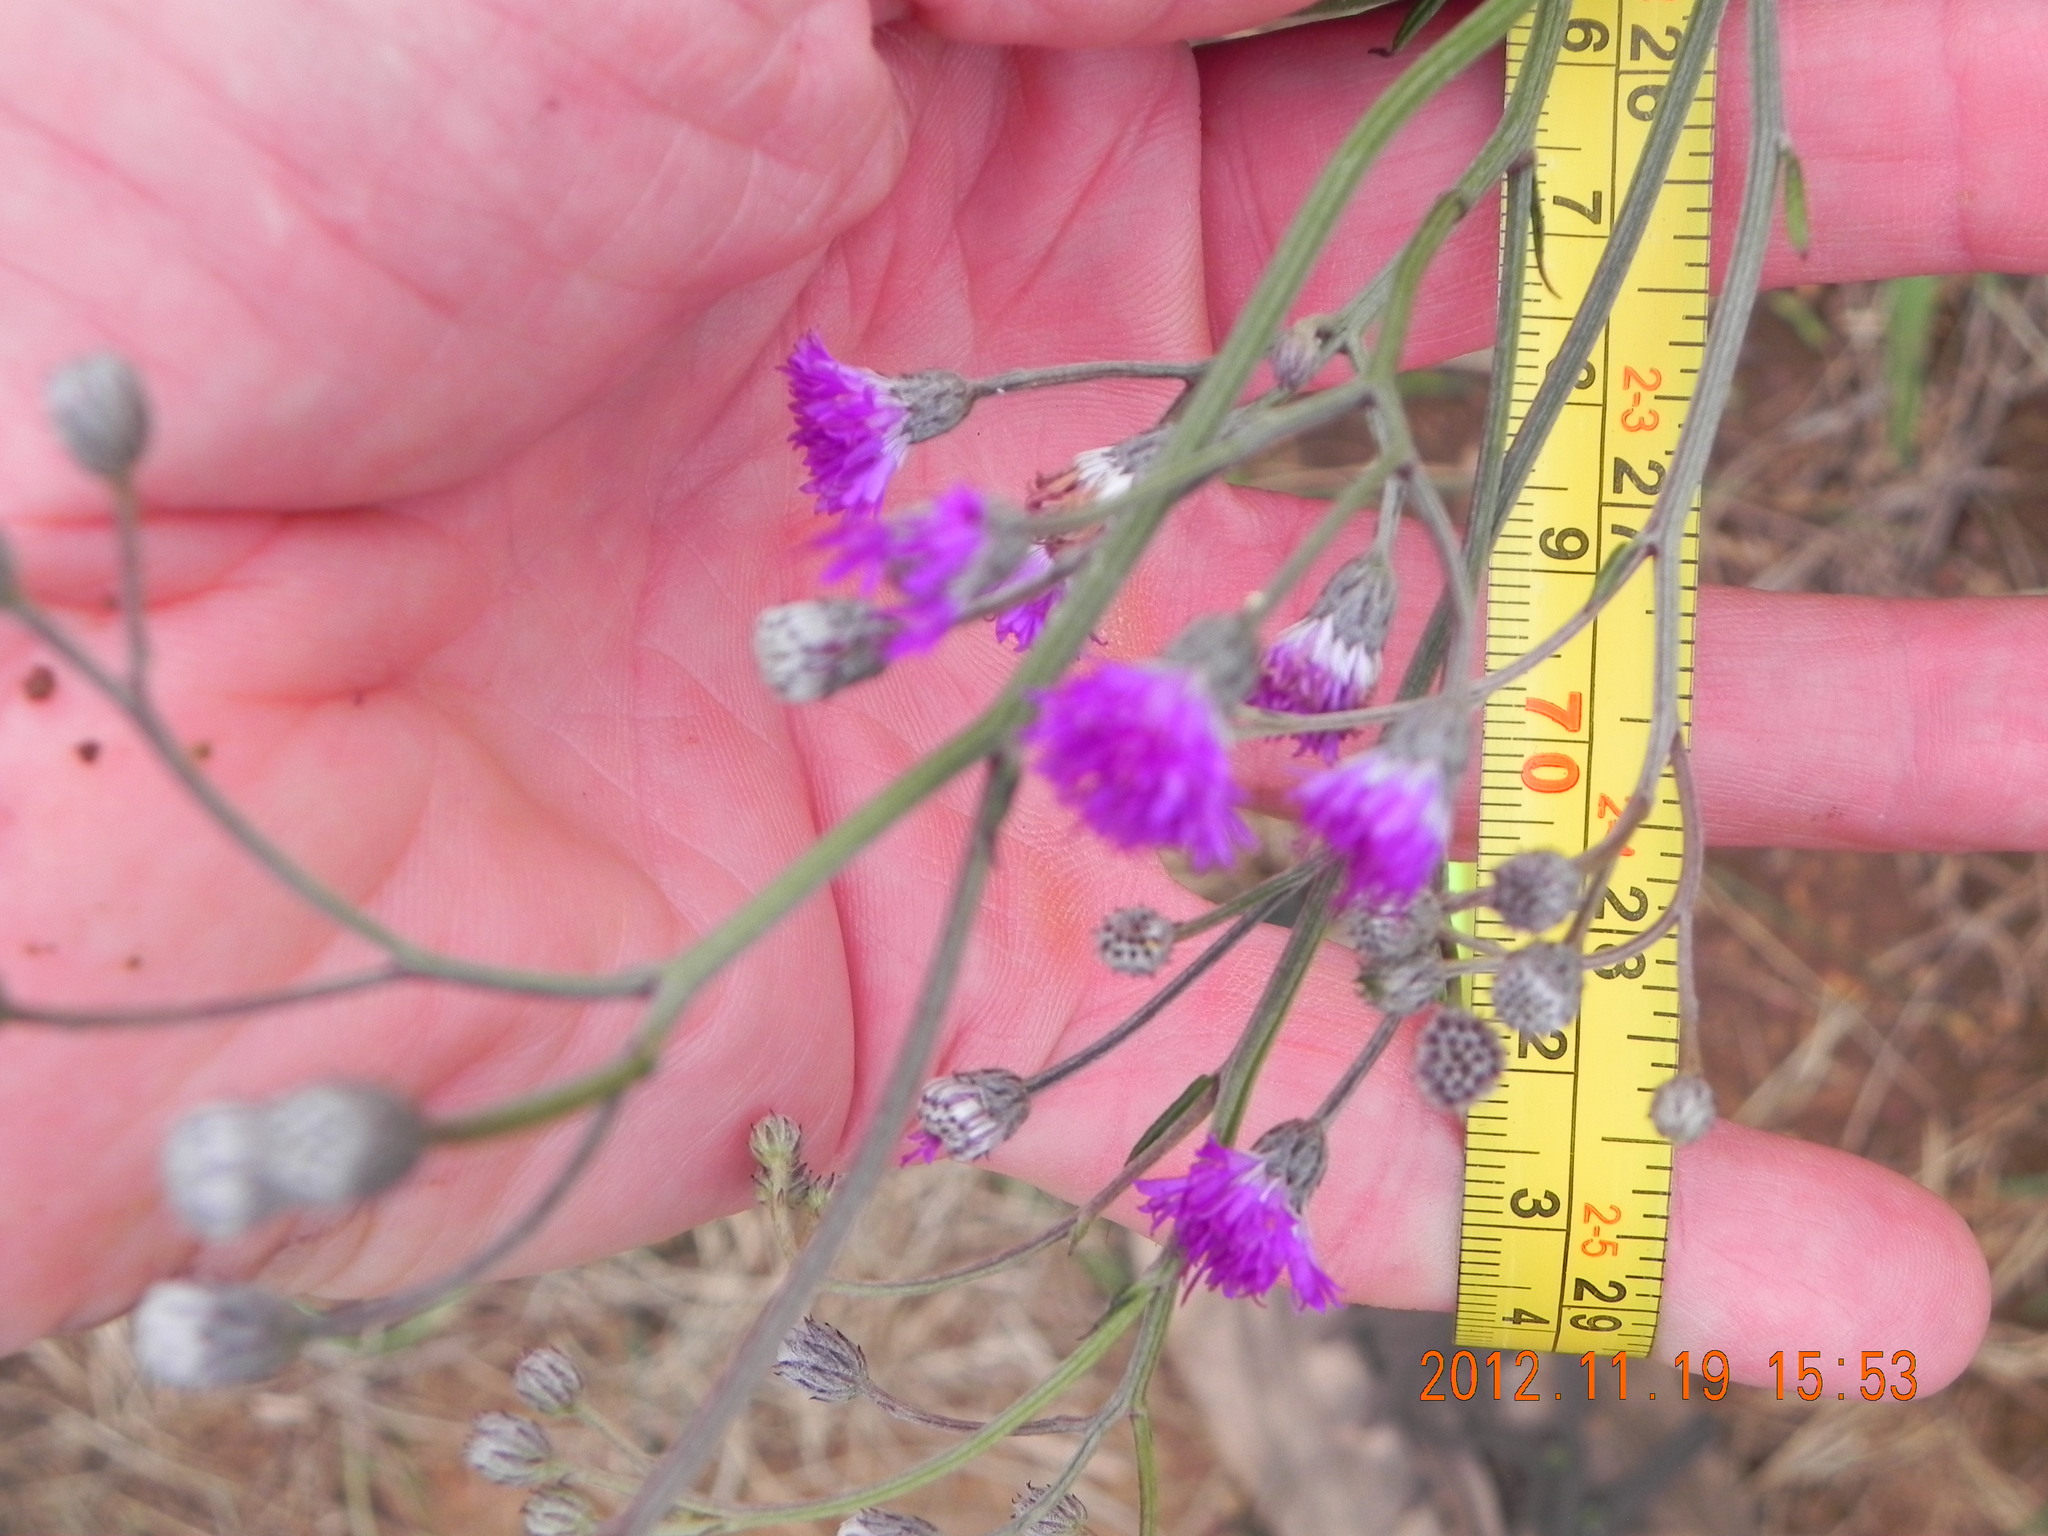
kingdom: Plantae
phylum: Tracheophyta
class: Magnoliopsida
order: Asterales
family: Asteraceae
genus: Hilliardiella
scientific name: Hilliardiella capensis
